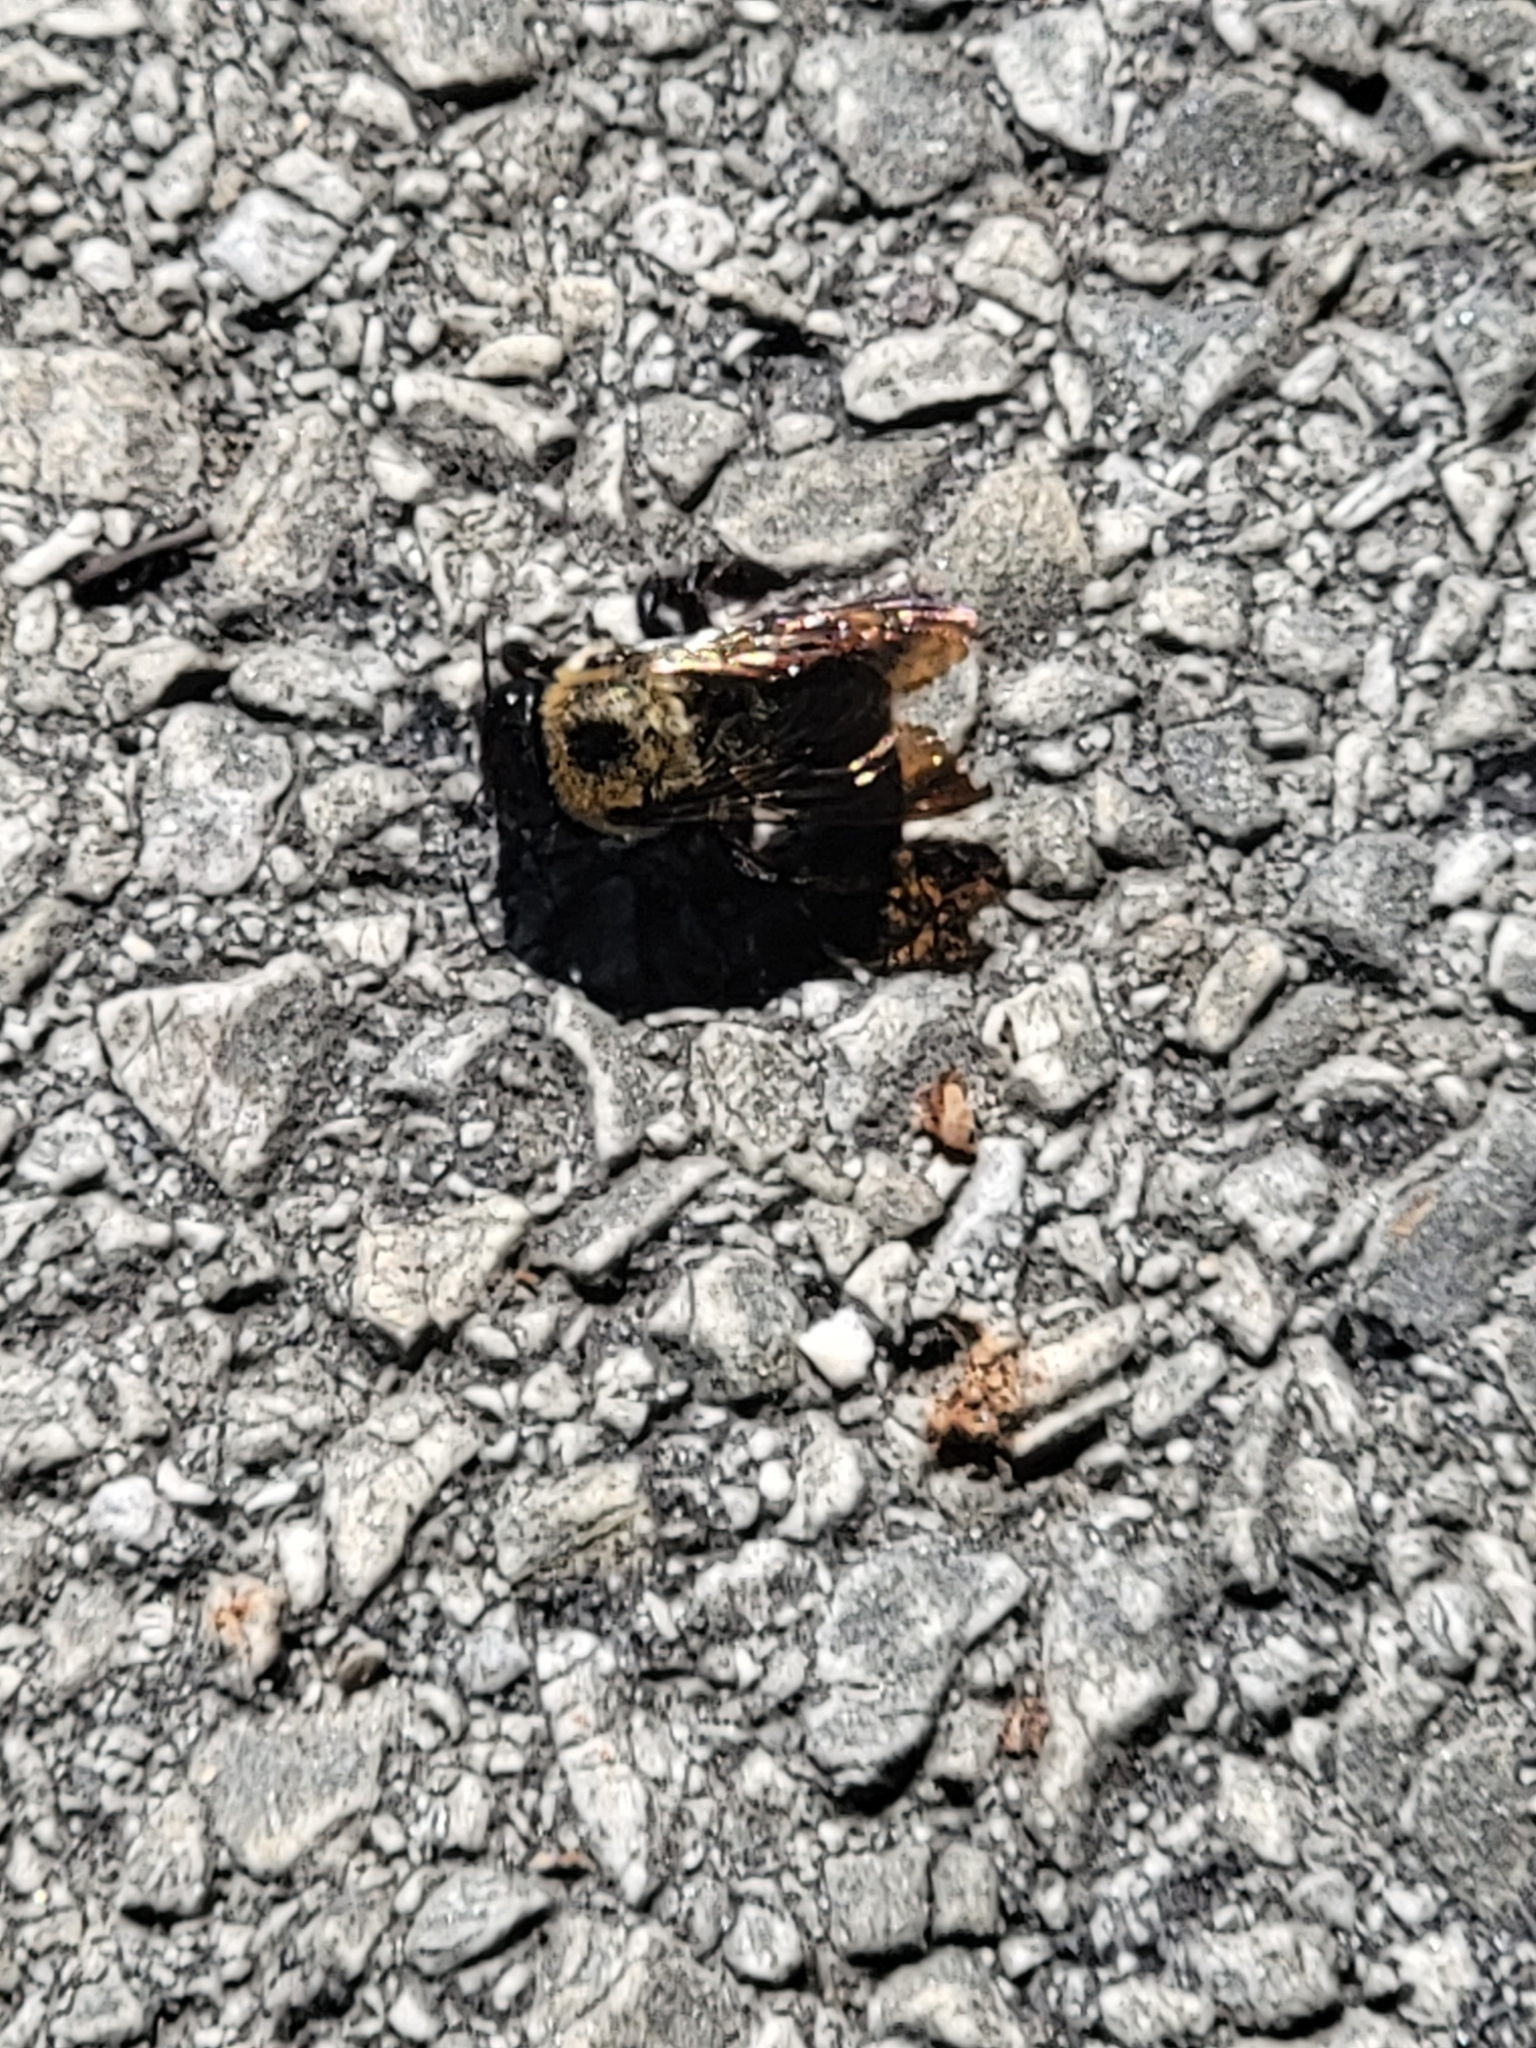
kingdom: Animalia
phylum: Arthropoda
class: Insecta
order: Hymenoptera
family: Apidae
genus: Xylocopa
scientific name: Xylocopa virginica
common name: Carpenter bee
